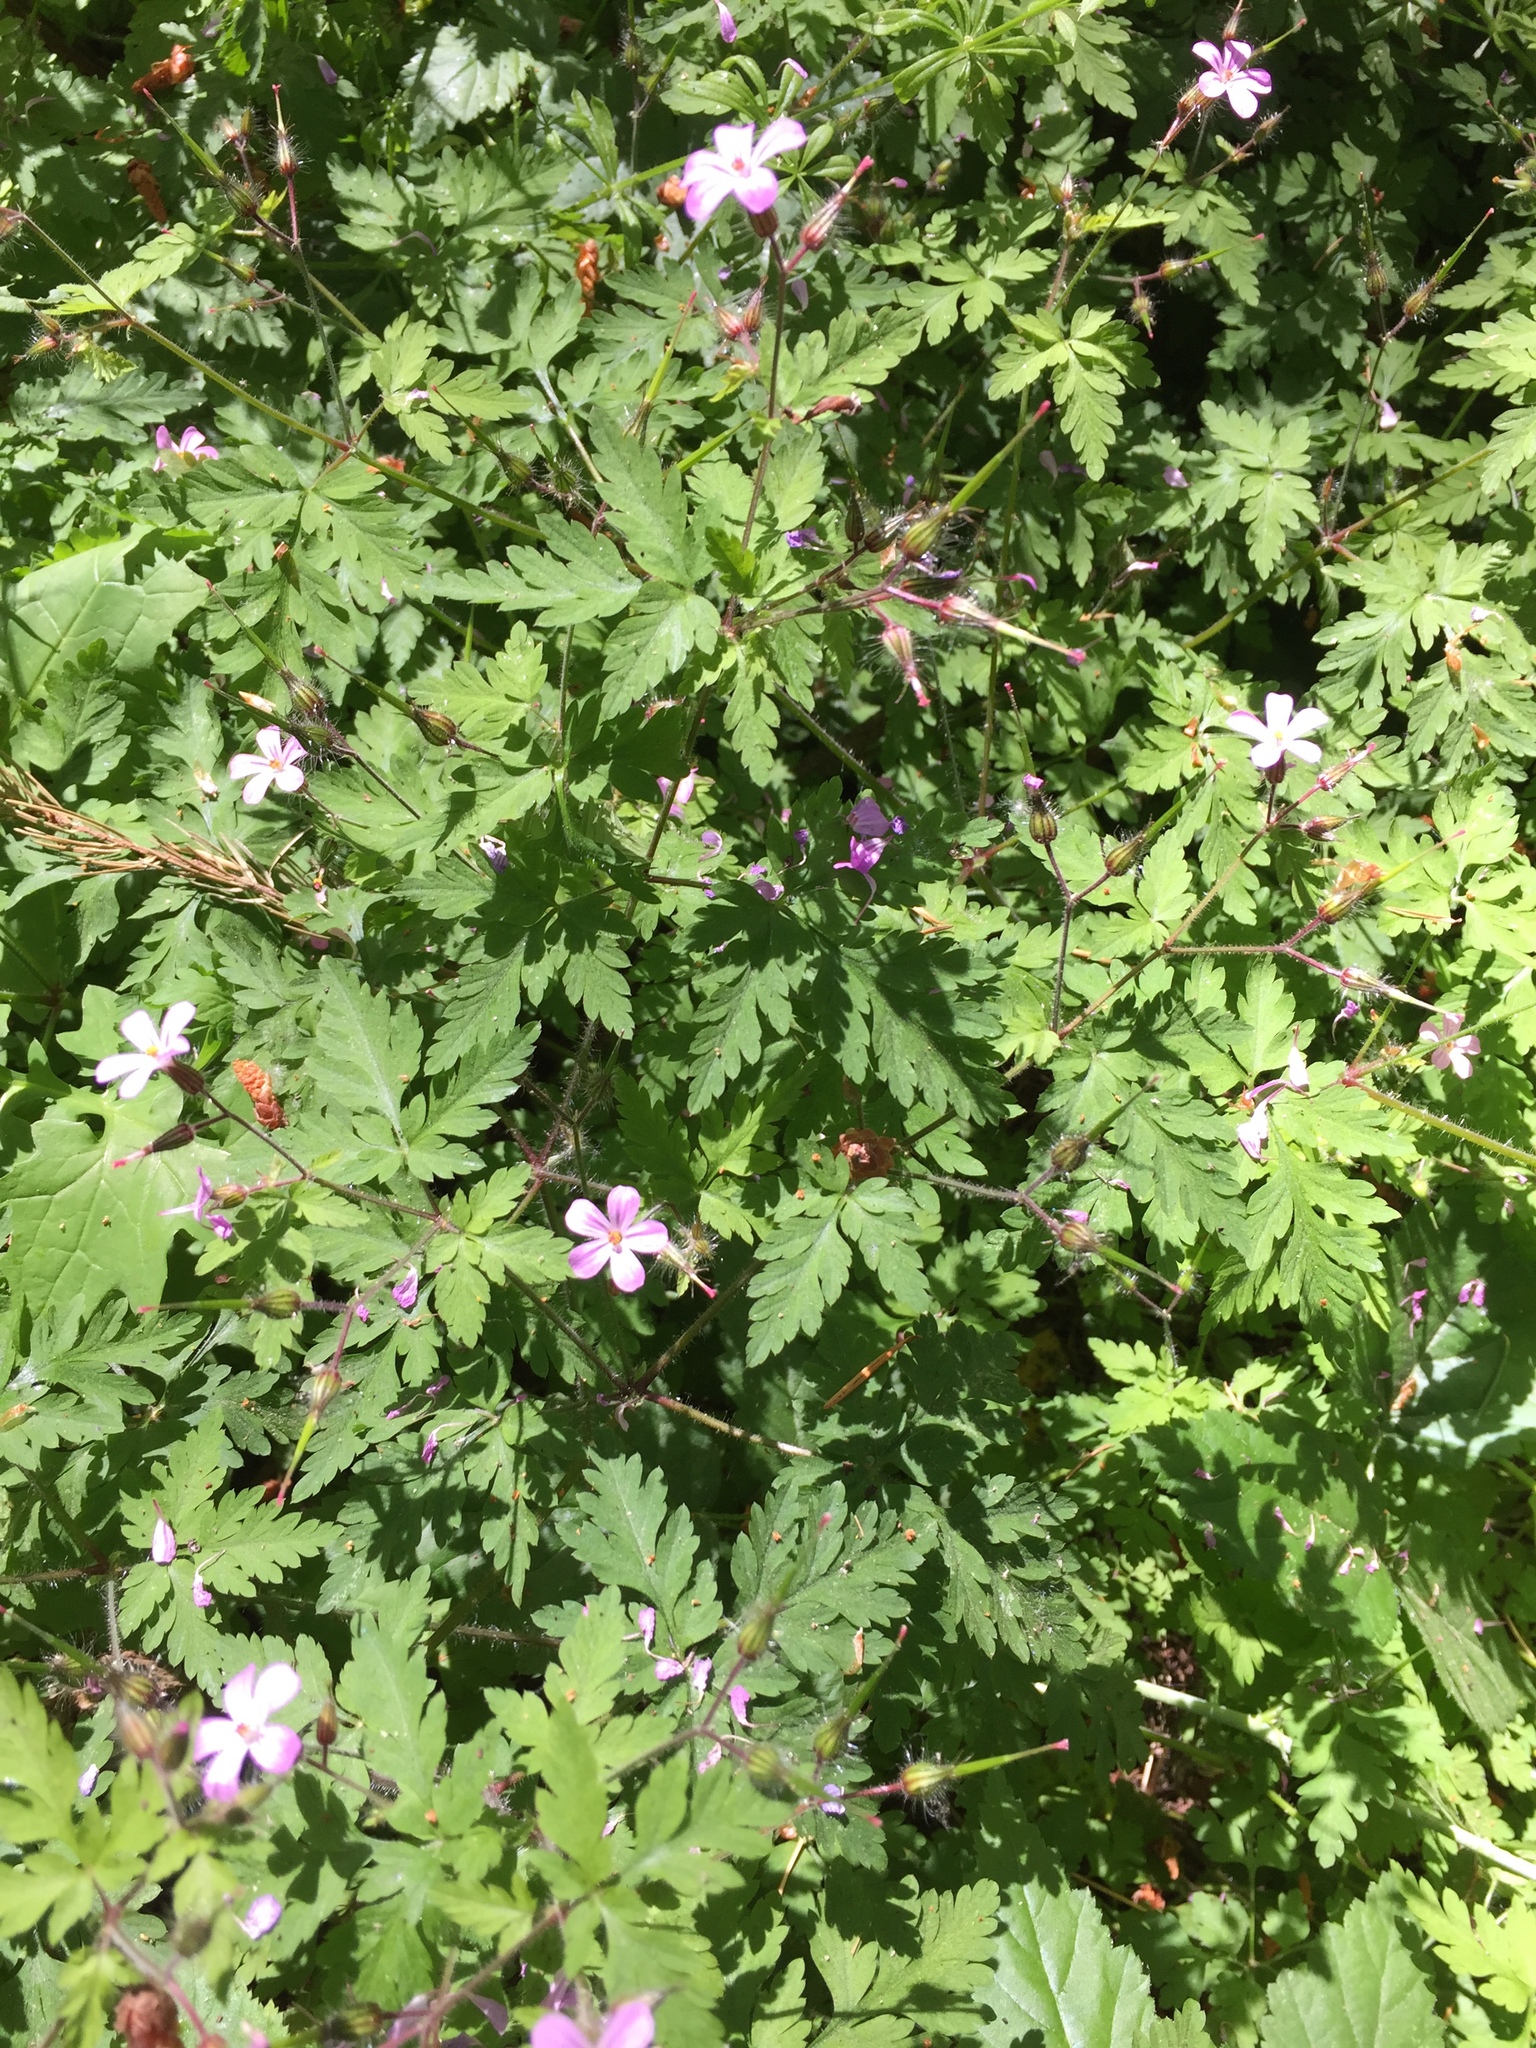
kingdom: Plantae
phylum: Tracheophyta
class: Magnoliopsida
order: Geraniales
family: Geraniaceae
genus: Geranium
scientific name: Geranium robertianum
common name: Herb-robert
